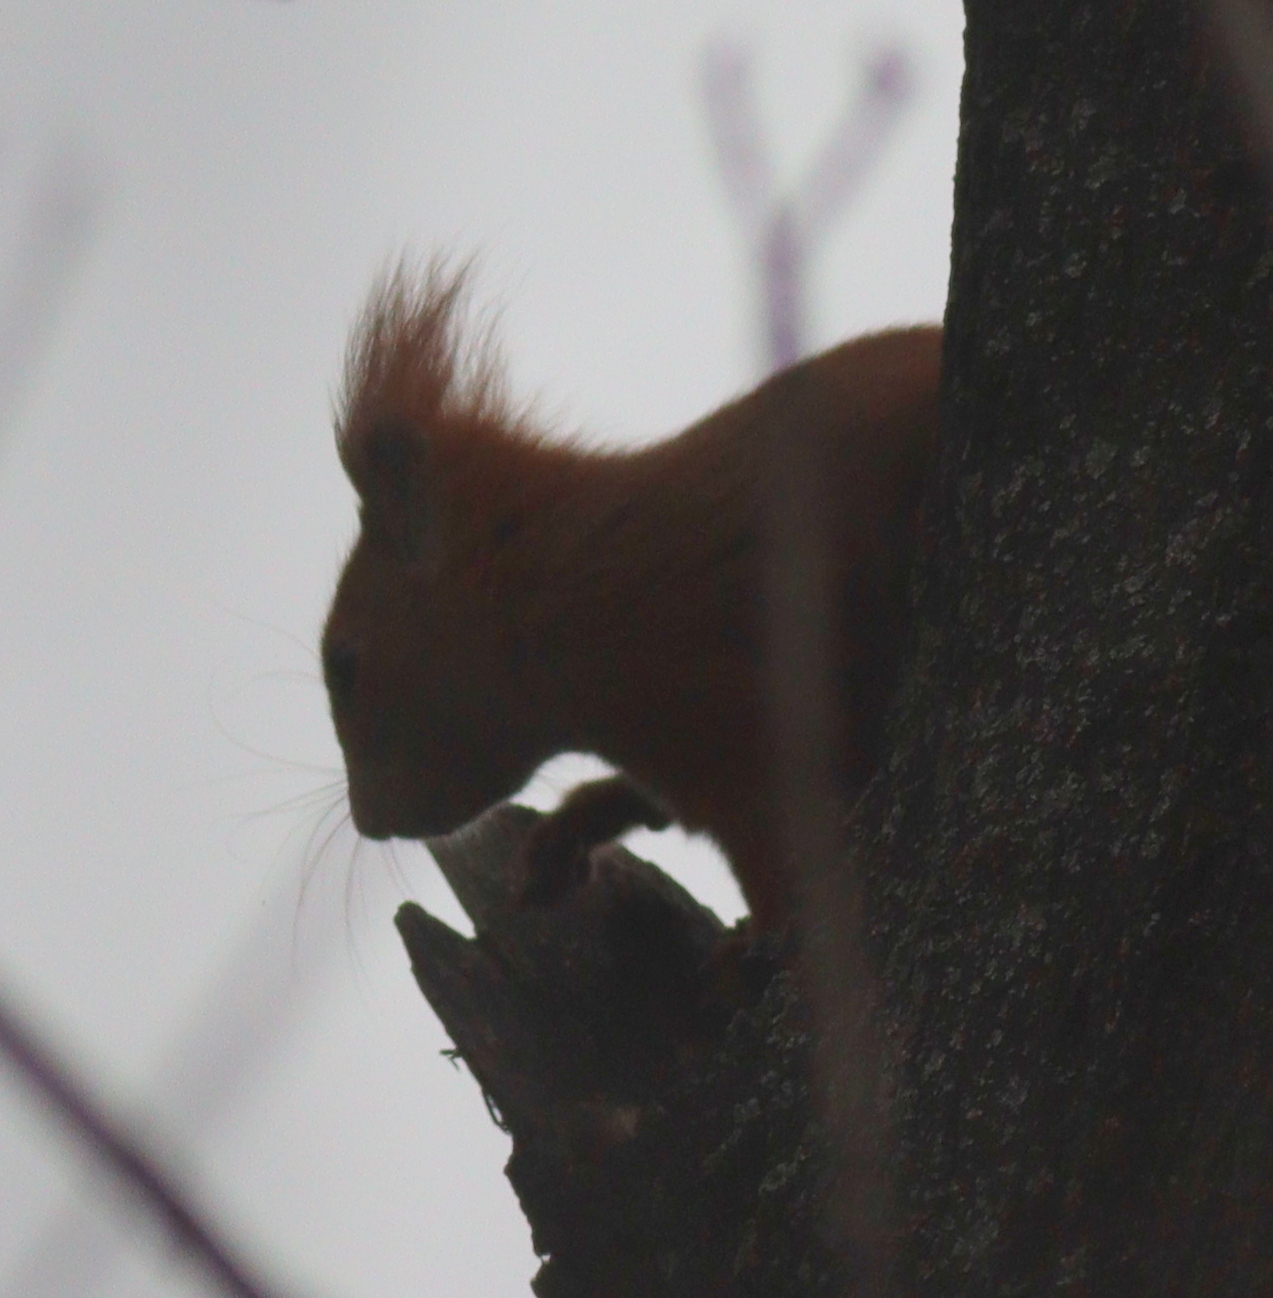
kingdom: Animalia
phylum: Chordata
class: Mammalia
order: Rodentia
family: Sciuridae
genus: Sciurus
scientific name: Sciurus vulgaris
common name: Eurasian red squirrel
